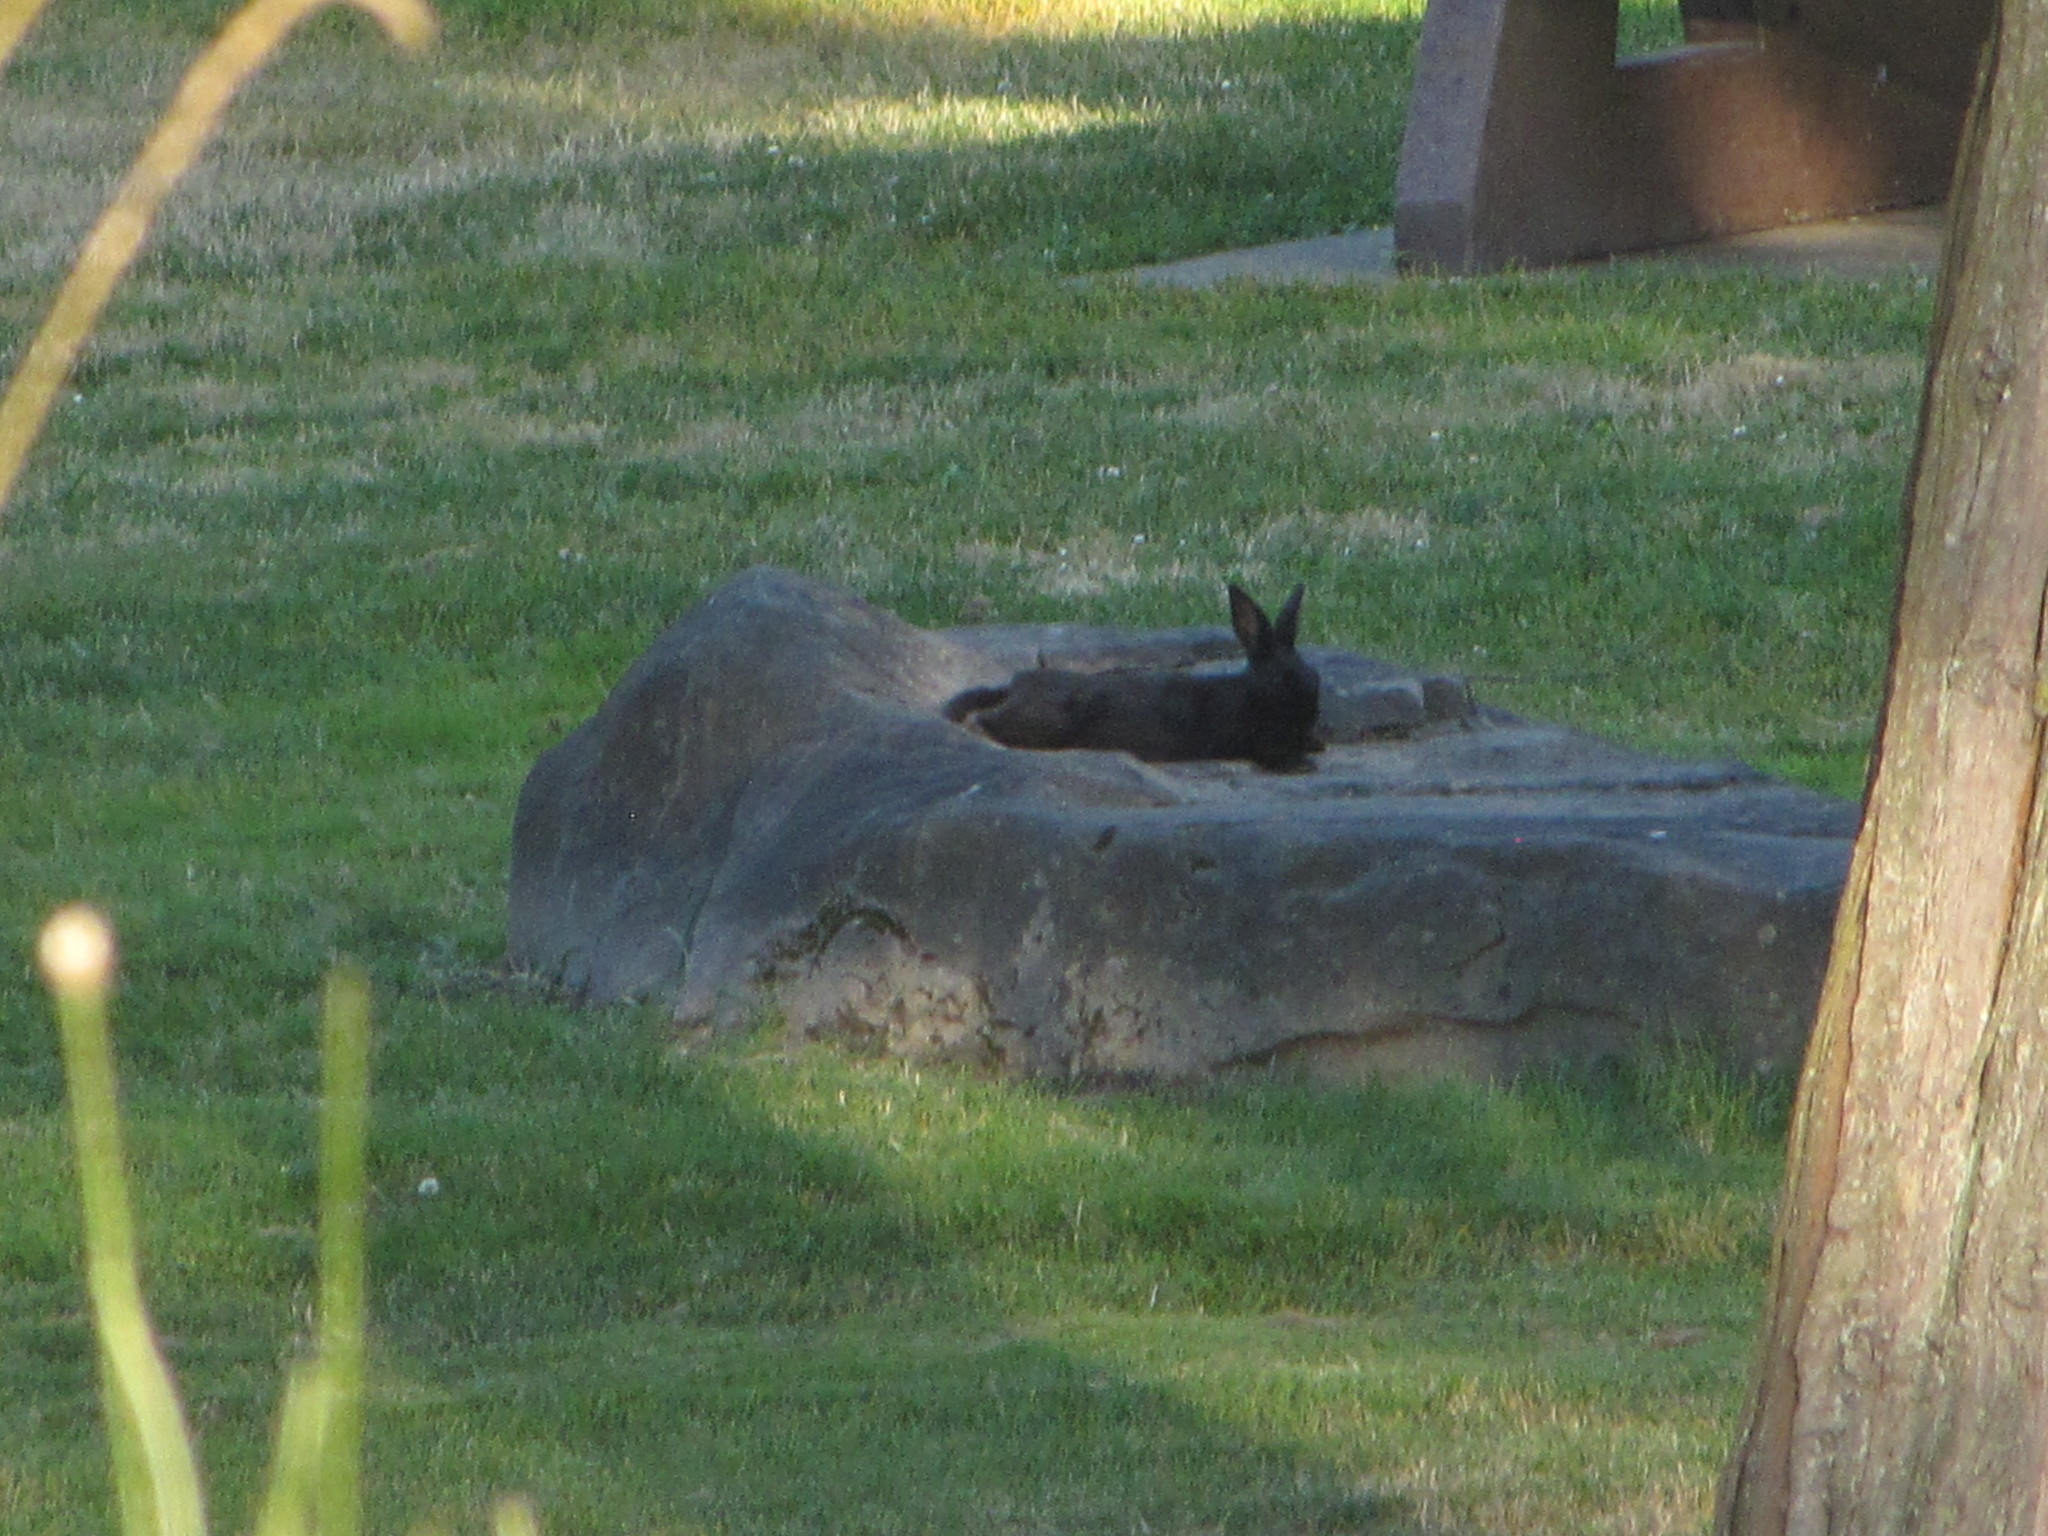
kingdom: Animalia
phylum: Chordata
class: Mammalia
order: Lagomorpha
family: Leporidae
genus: Oryctolagus
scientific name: Oryctolagus cuniculus
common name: European rabbit
